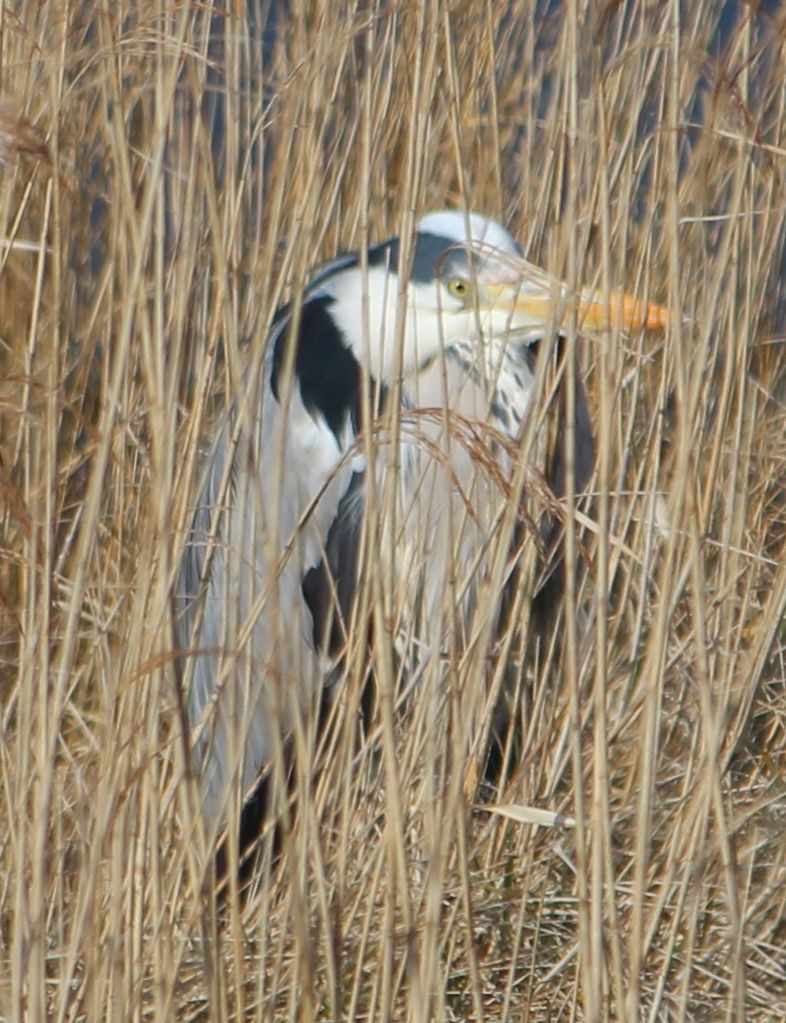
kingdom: Animalia
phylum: Chordata
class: Aves
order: Pelecaniformes
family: Ardeidae
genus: Ardea
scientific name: Ardea cinerea
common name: Grey heron
